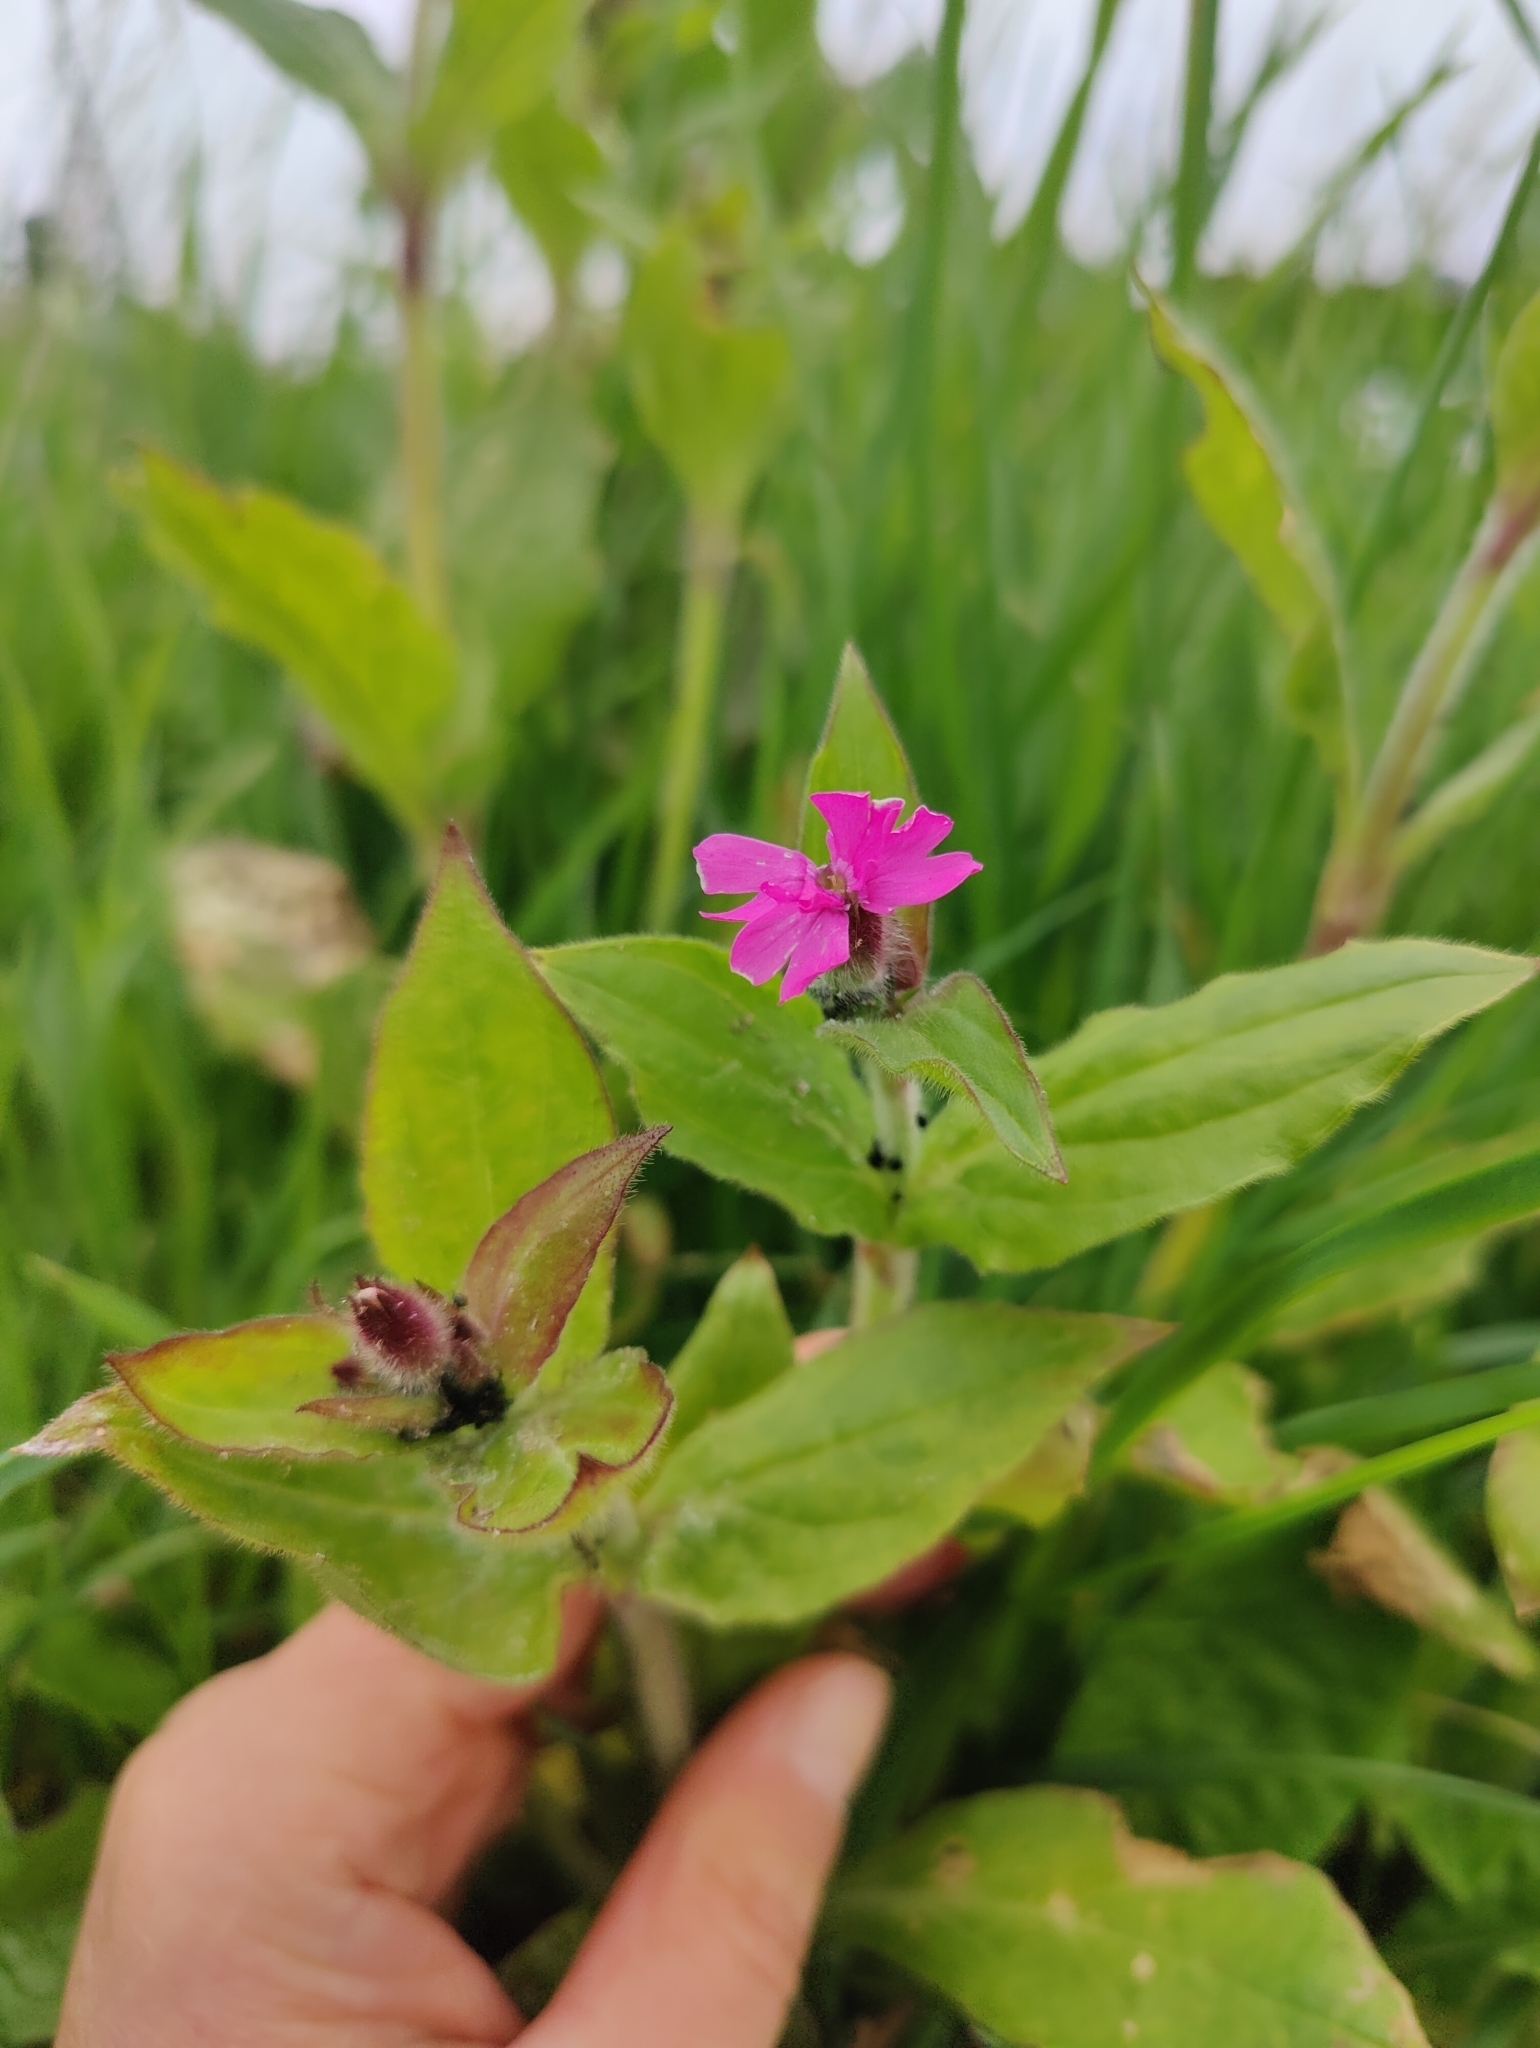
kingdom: Plantae
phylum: Tracheophyta
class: Magnoliopsida
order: Caryophyllales
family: Caryophyllaceae
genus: Silene
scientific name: Silene dioica
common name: Red campion
